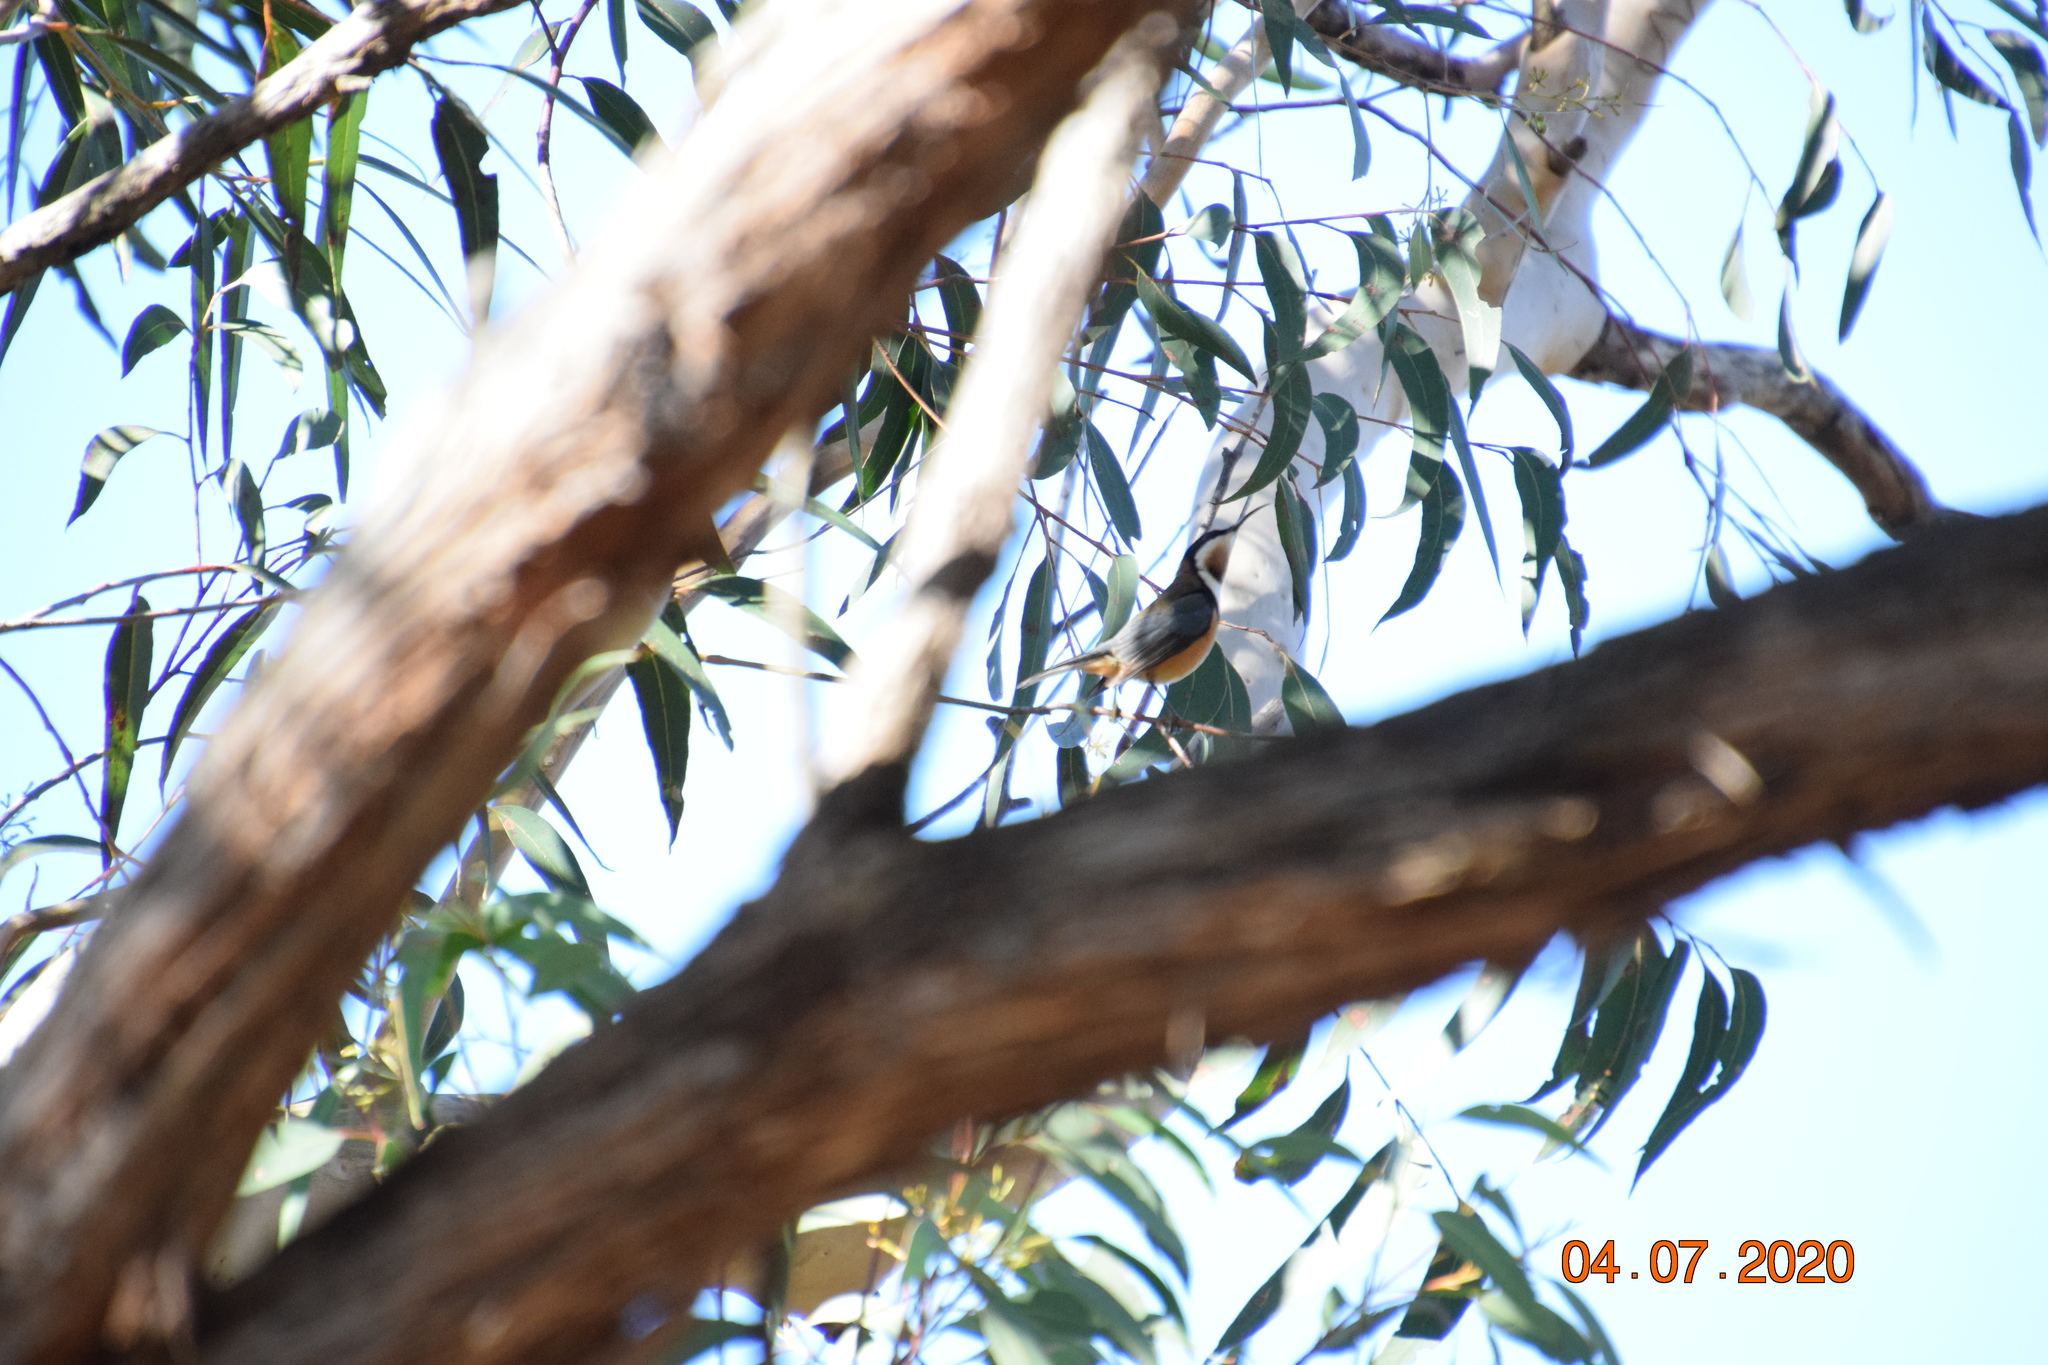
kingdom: Animalia
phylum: Chordata
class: Aves
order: Passeriformes
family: Meliphagidae
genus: Acanthorhynchus
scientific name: Acanthorhynchus tenuirostris
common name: Eastern spinebill
